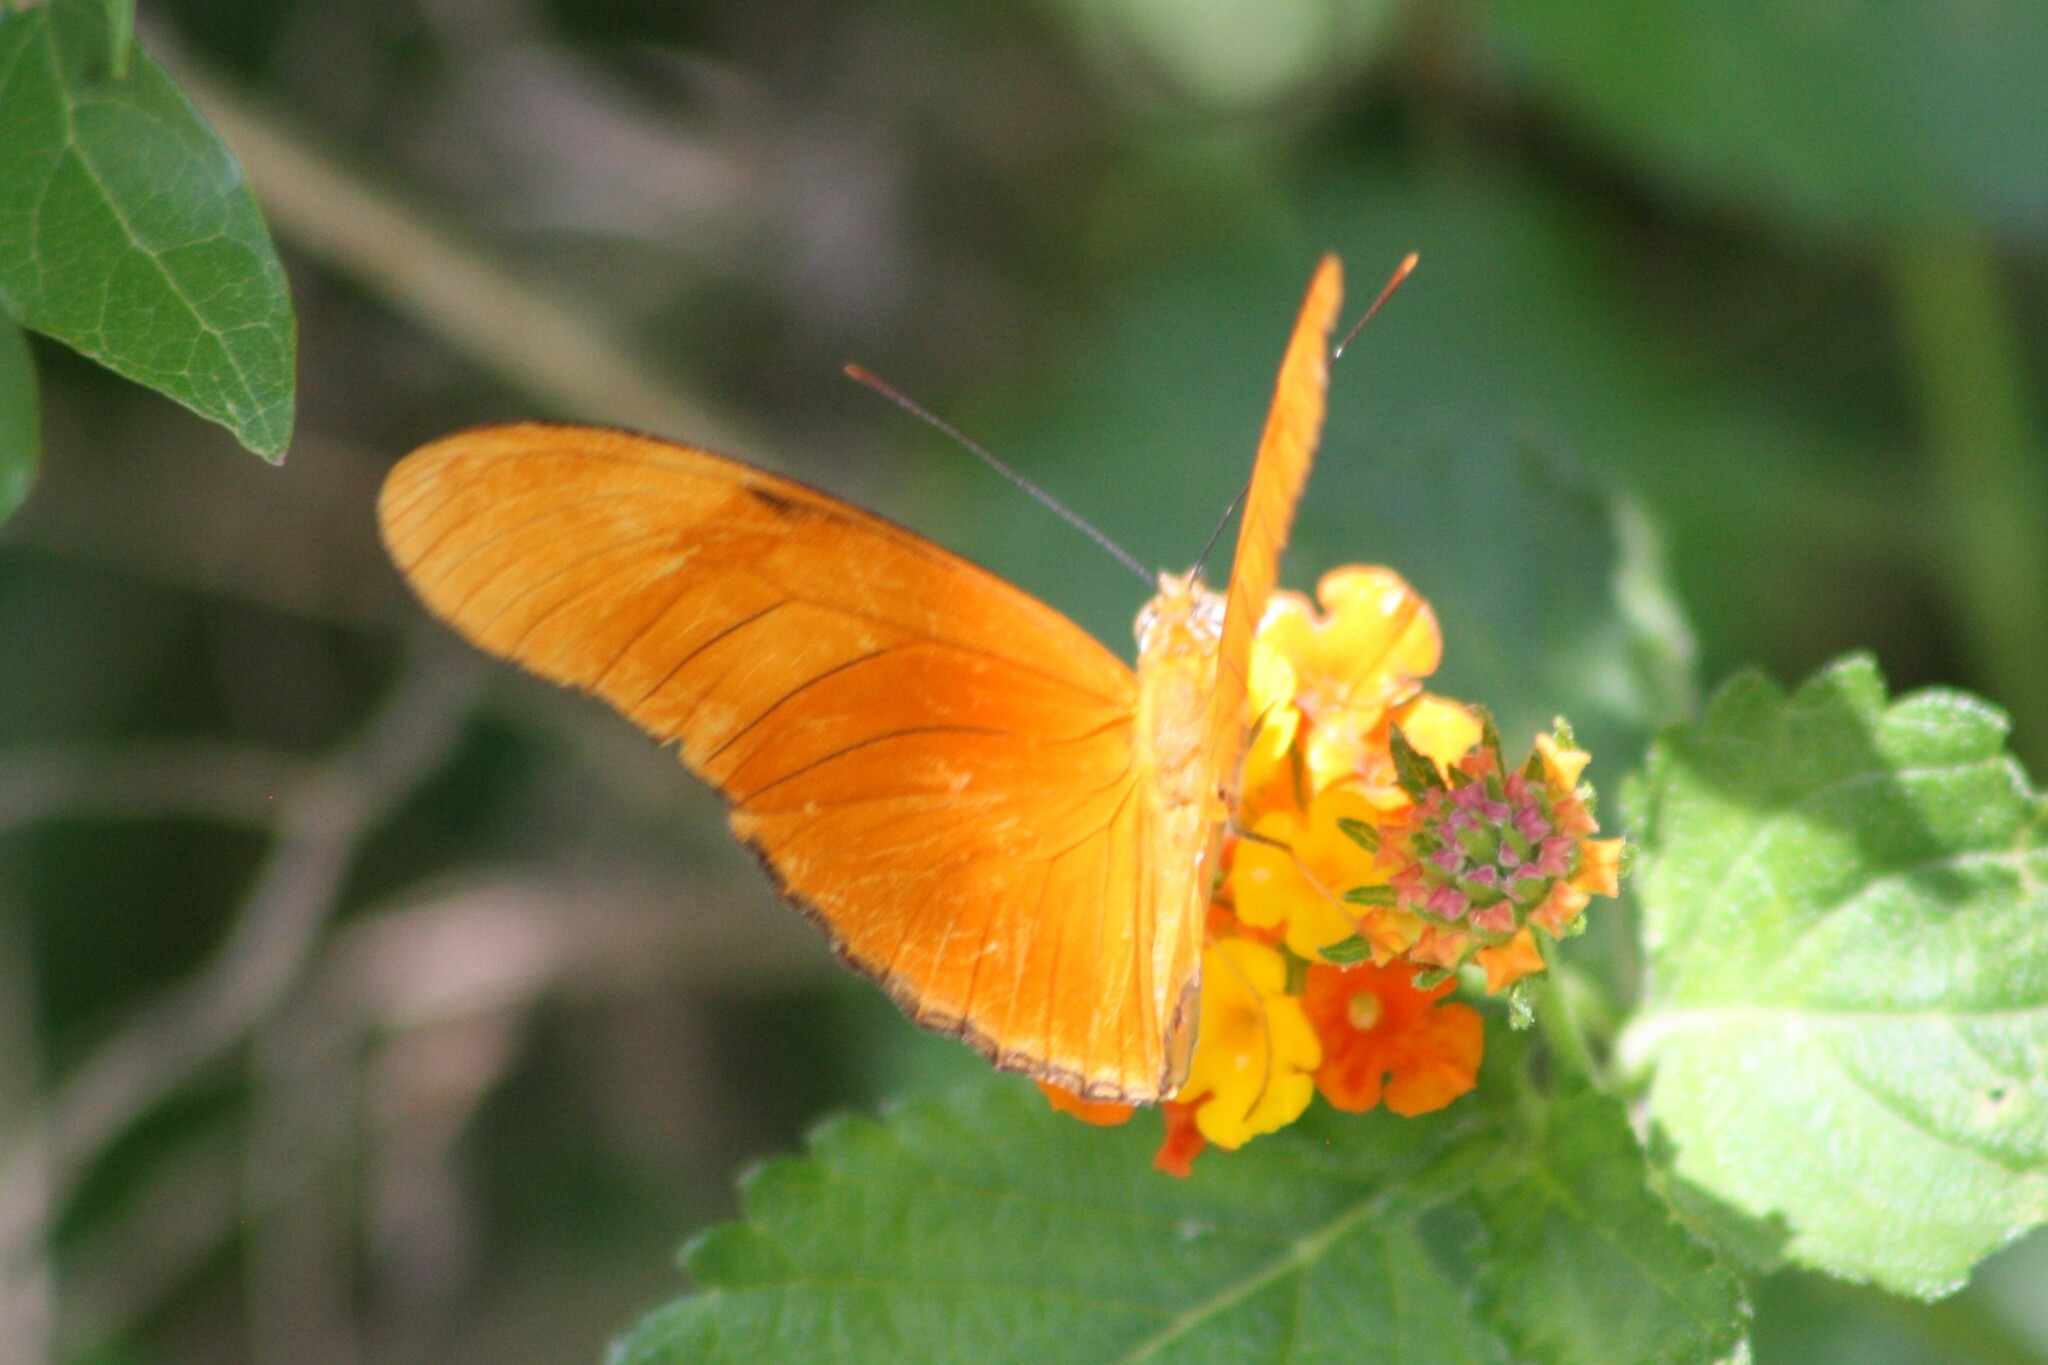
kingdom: Animalia
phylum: Arthropoda
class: Insecta
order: Lepidoptera
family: Nymphalidae
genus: Dryas
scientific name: Dryas iulia
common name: Flambeau
